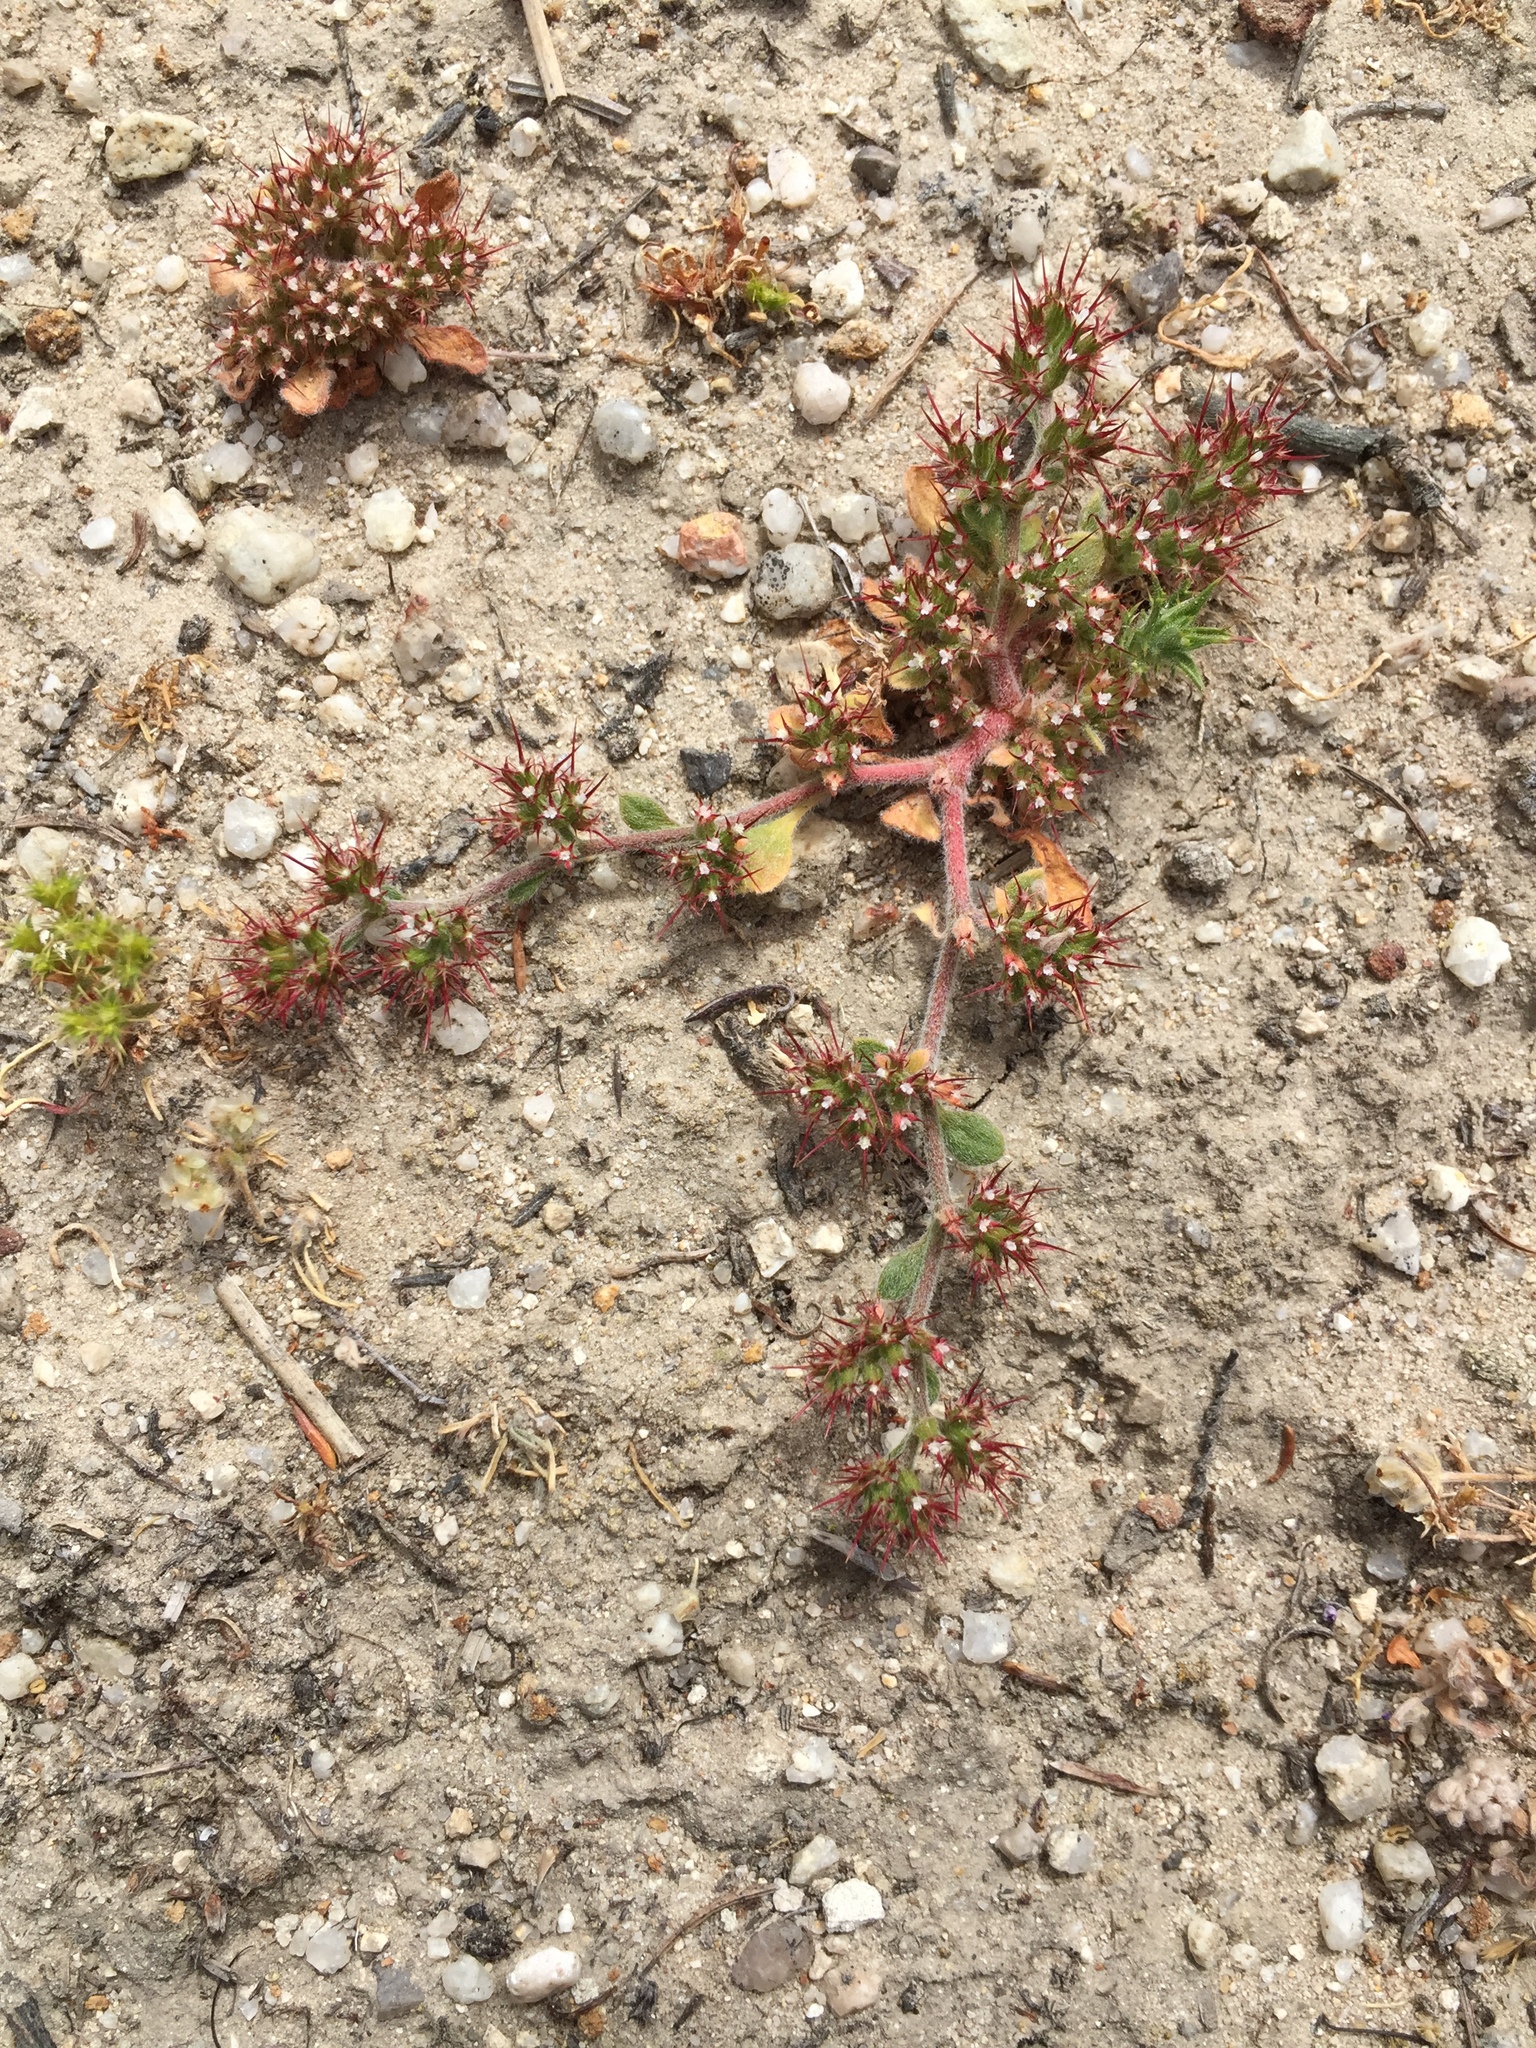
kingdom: Plantae
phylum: Tracheophyta
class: Magnoliopsida
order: Caryophyllales
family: Polygonaceae
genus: Chorizanthe
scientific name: Chorizanthe uniaristata
